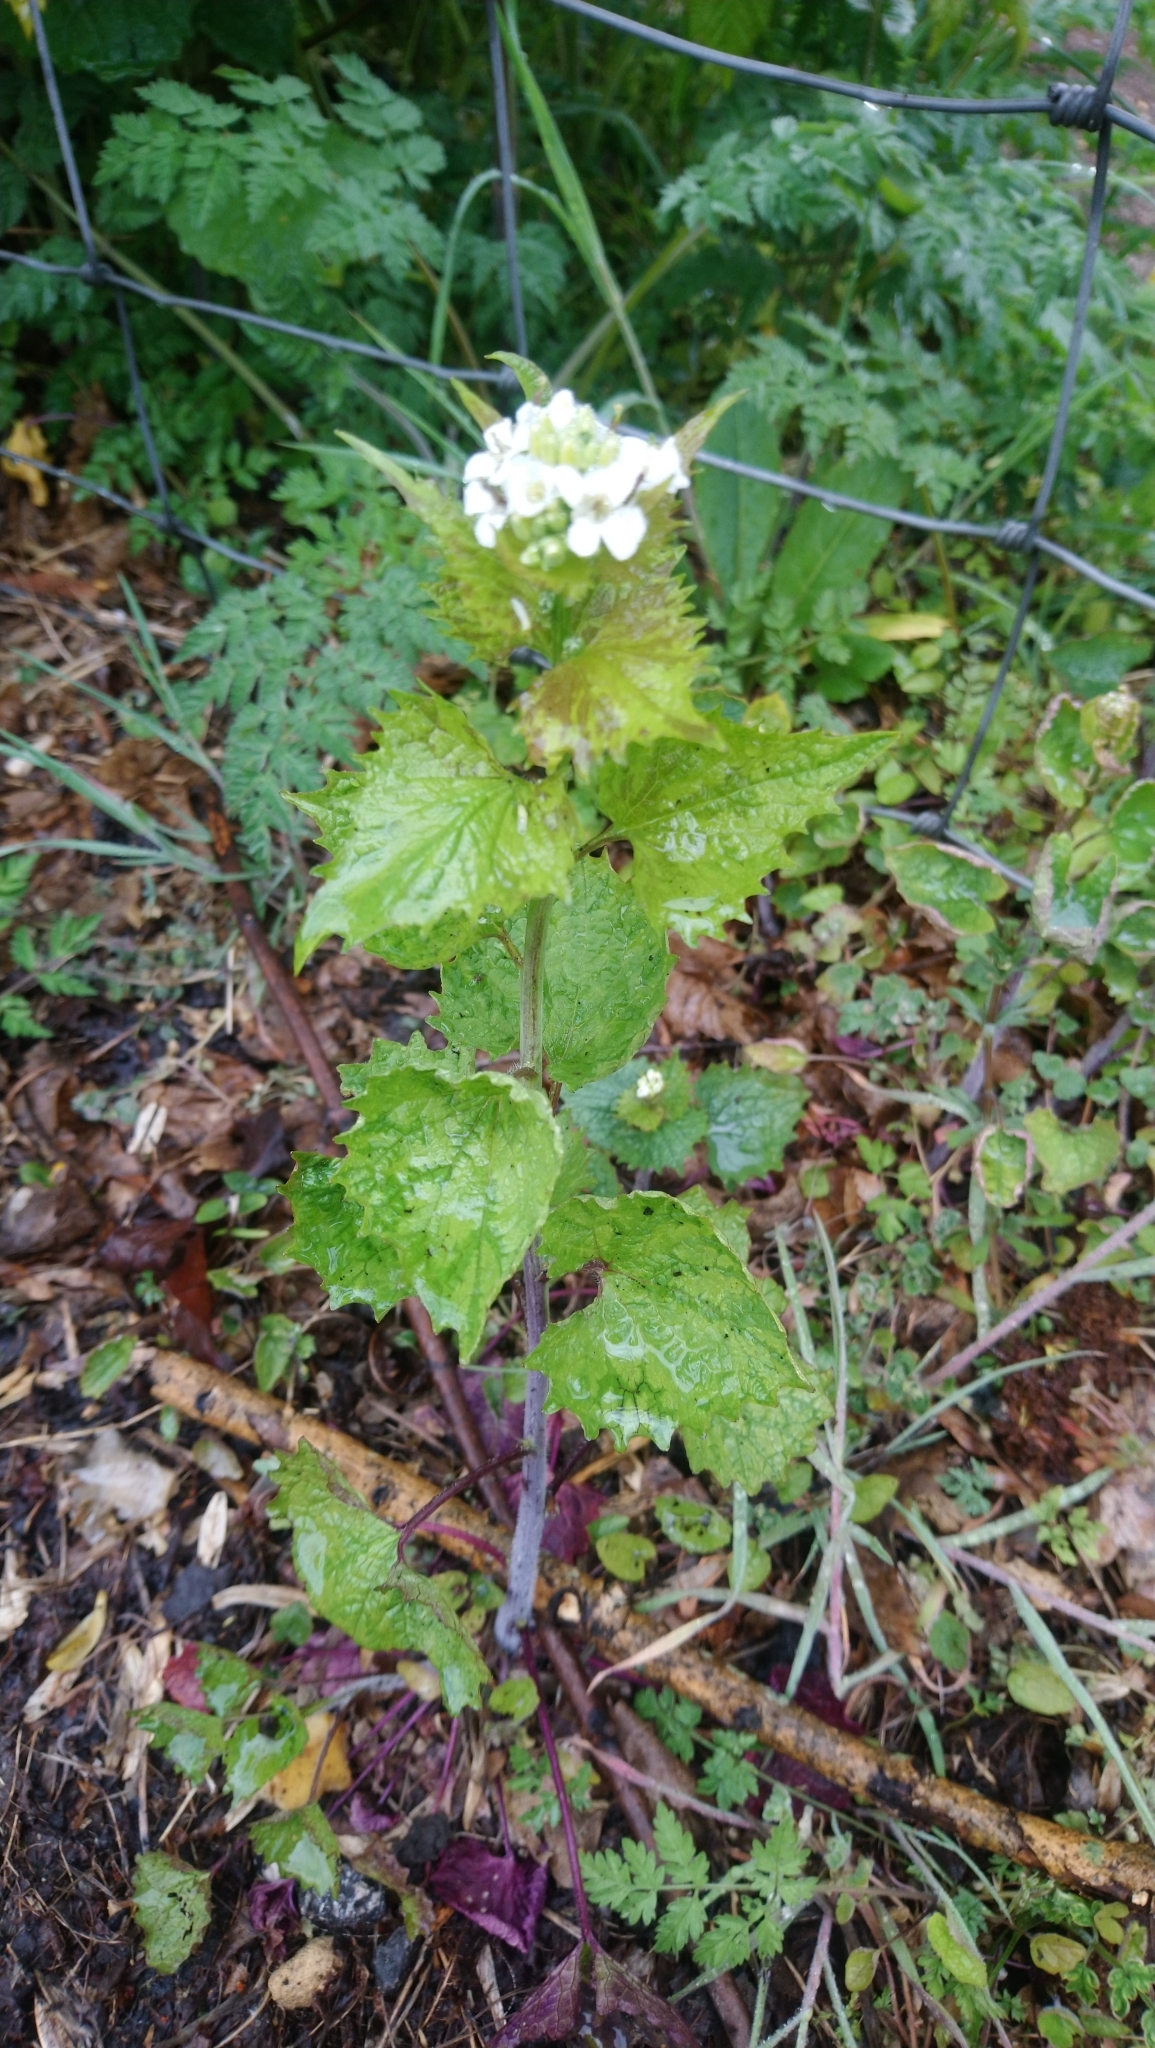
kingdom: Plantae
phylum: Tracheophyta
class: Magnoliopsida
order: Brassicales
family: Brassicaceae
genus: Alliaria
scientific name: Alliaria petiolata
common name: Garlic mustard
